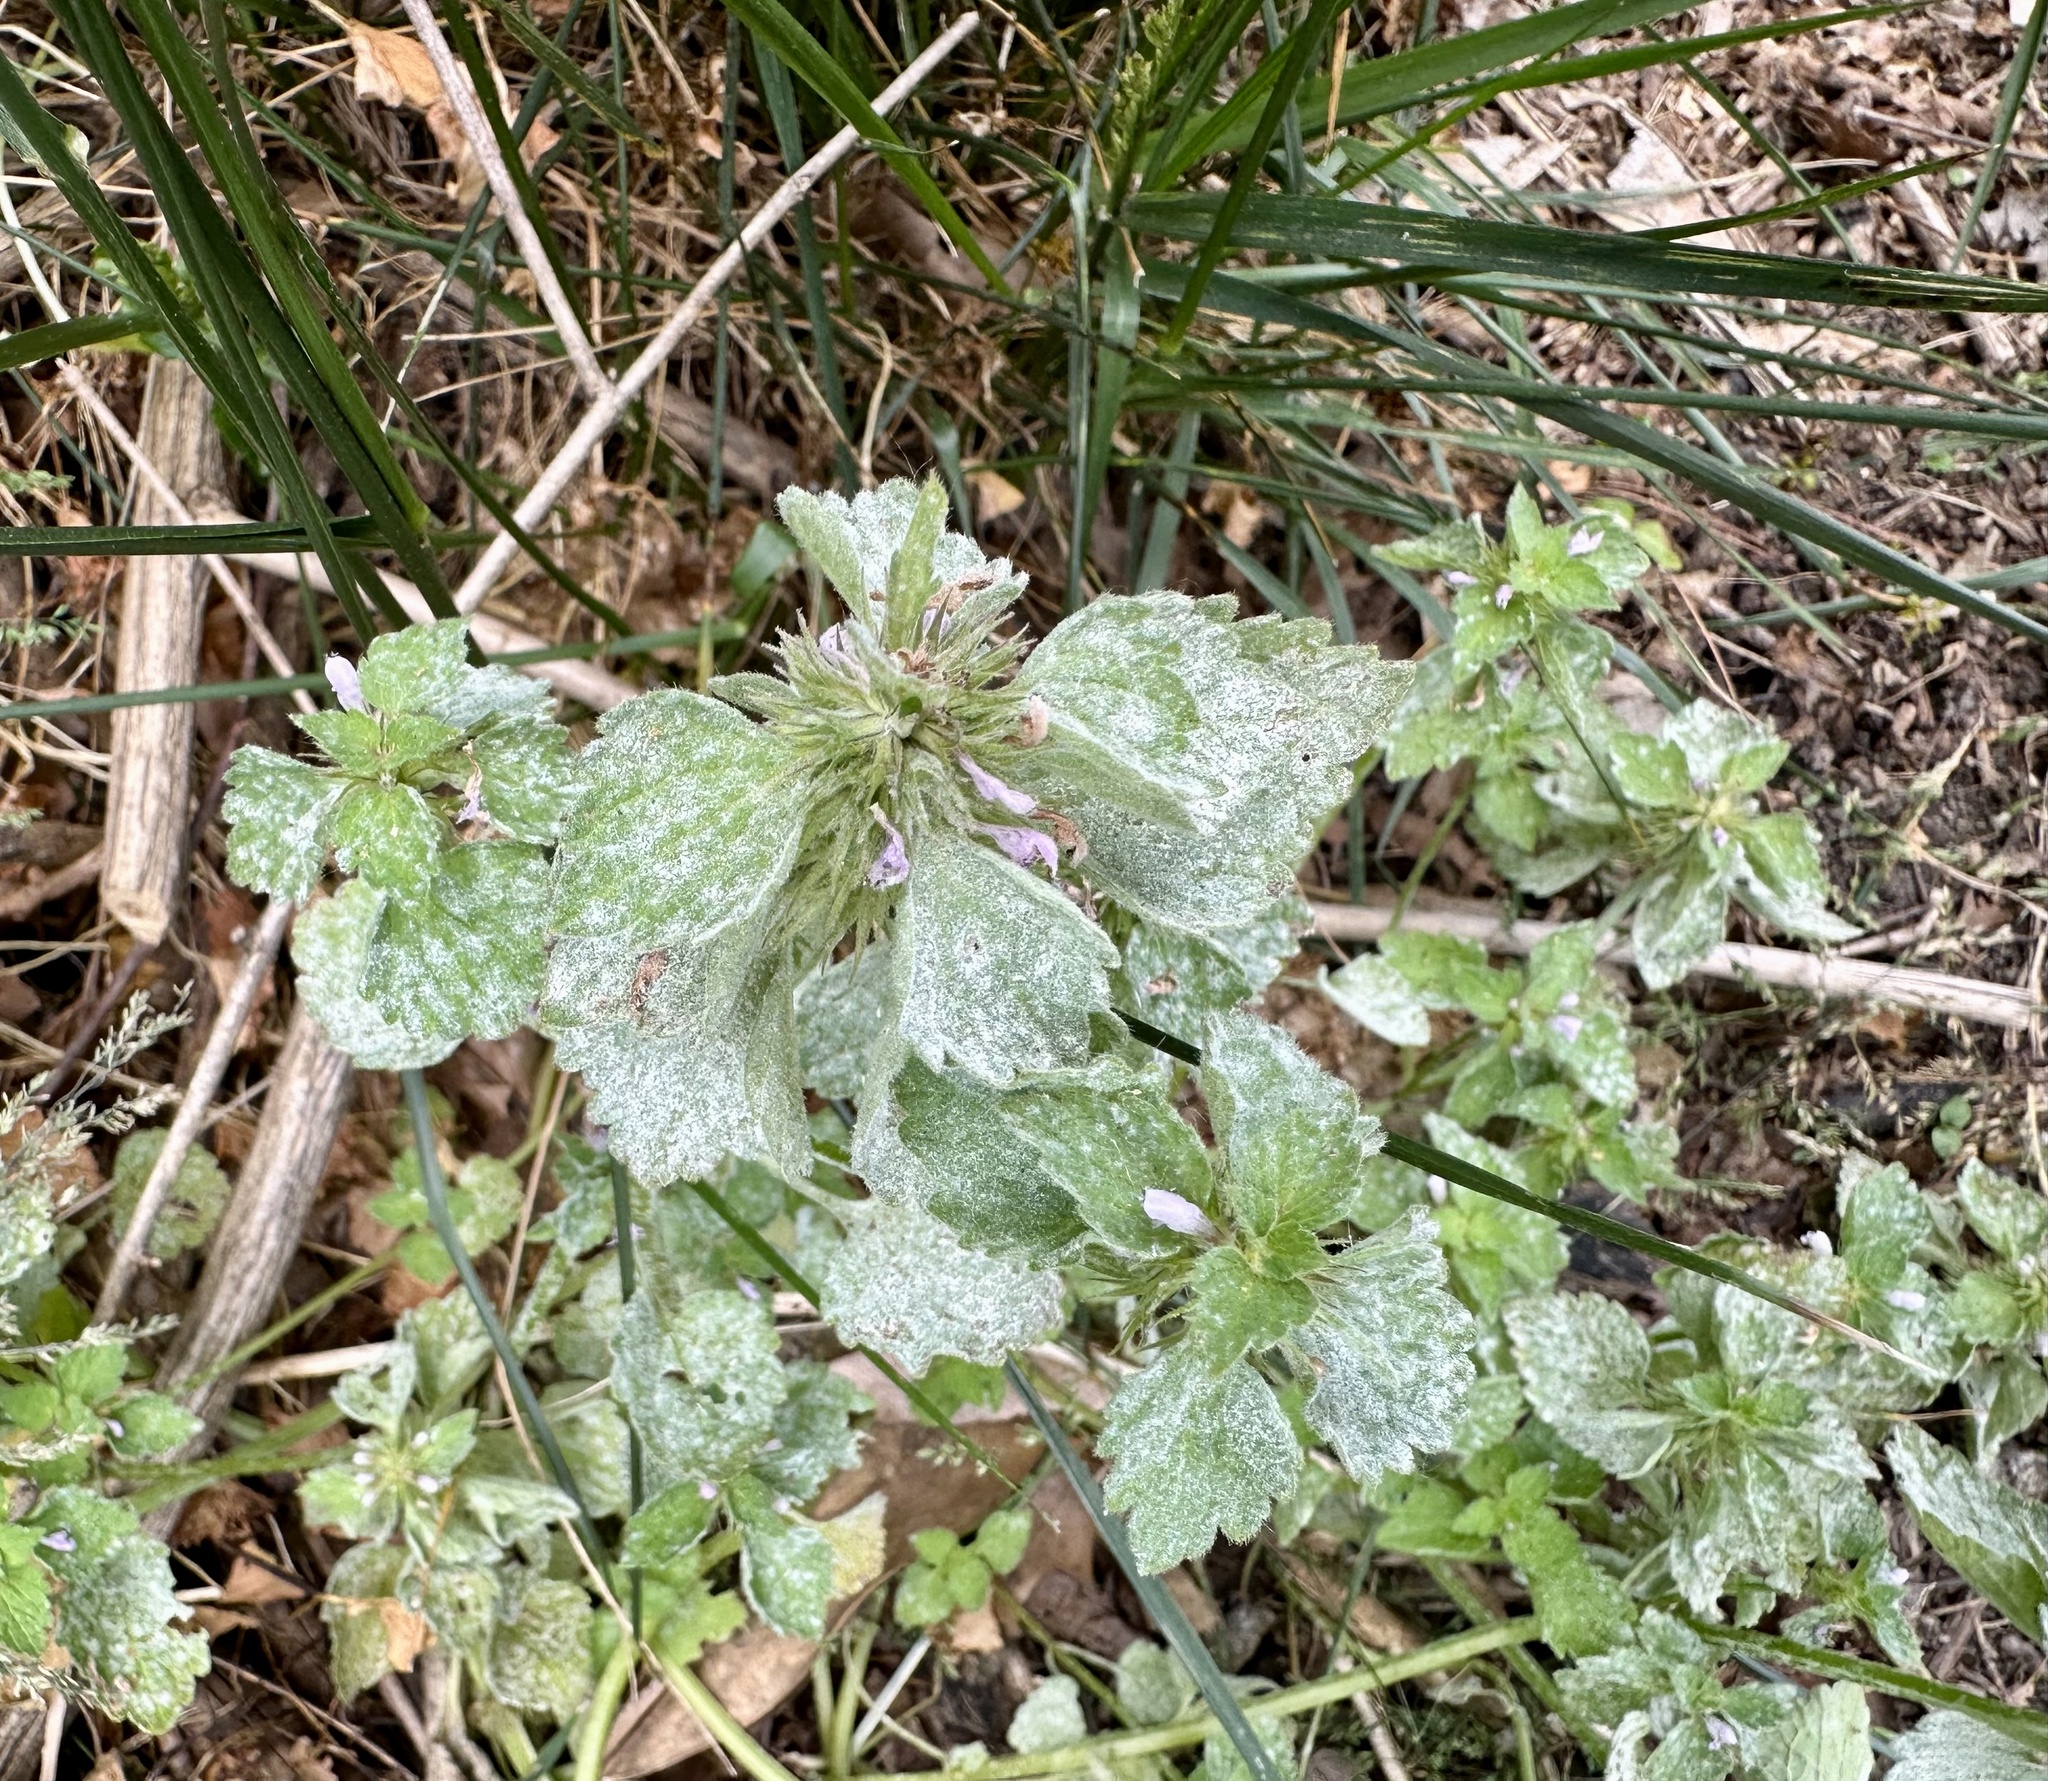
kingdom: Fungi
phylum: Ascomycota
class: Leotiomycetes
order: Helotiales
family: Erysiphaceae
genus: Neoerysiphe
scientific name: Neoerysiphe galeopsidis
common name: Mint mildew
